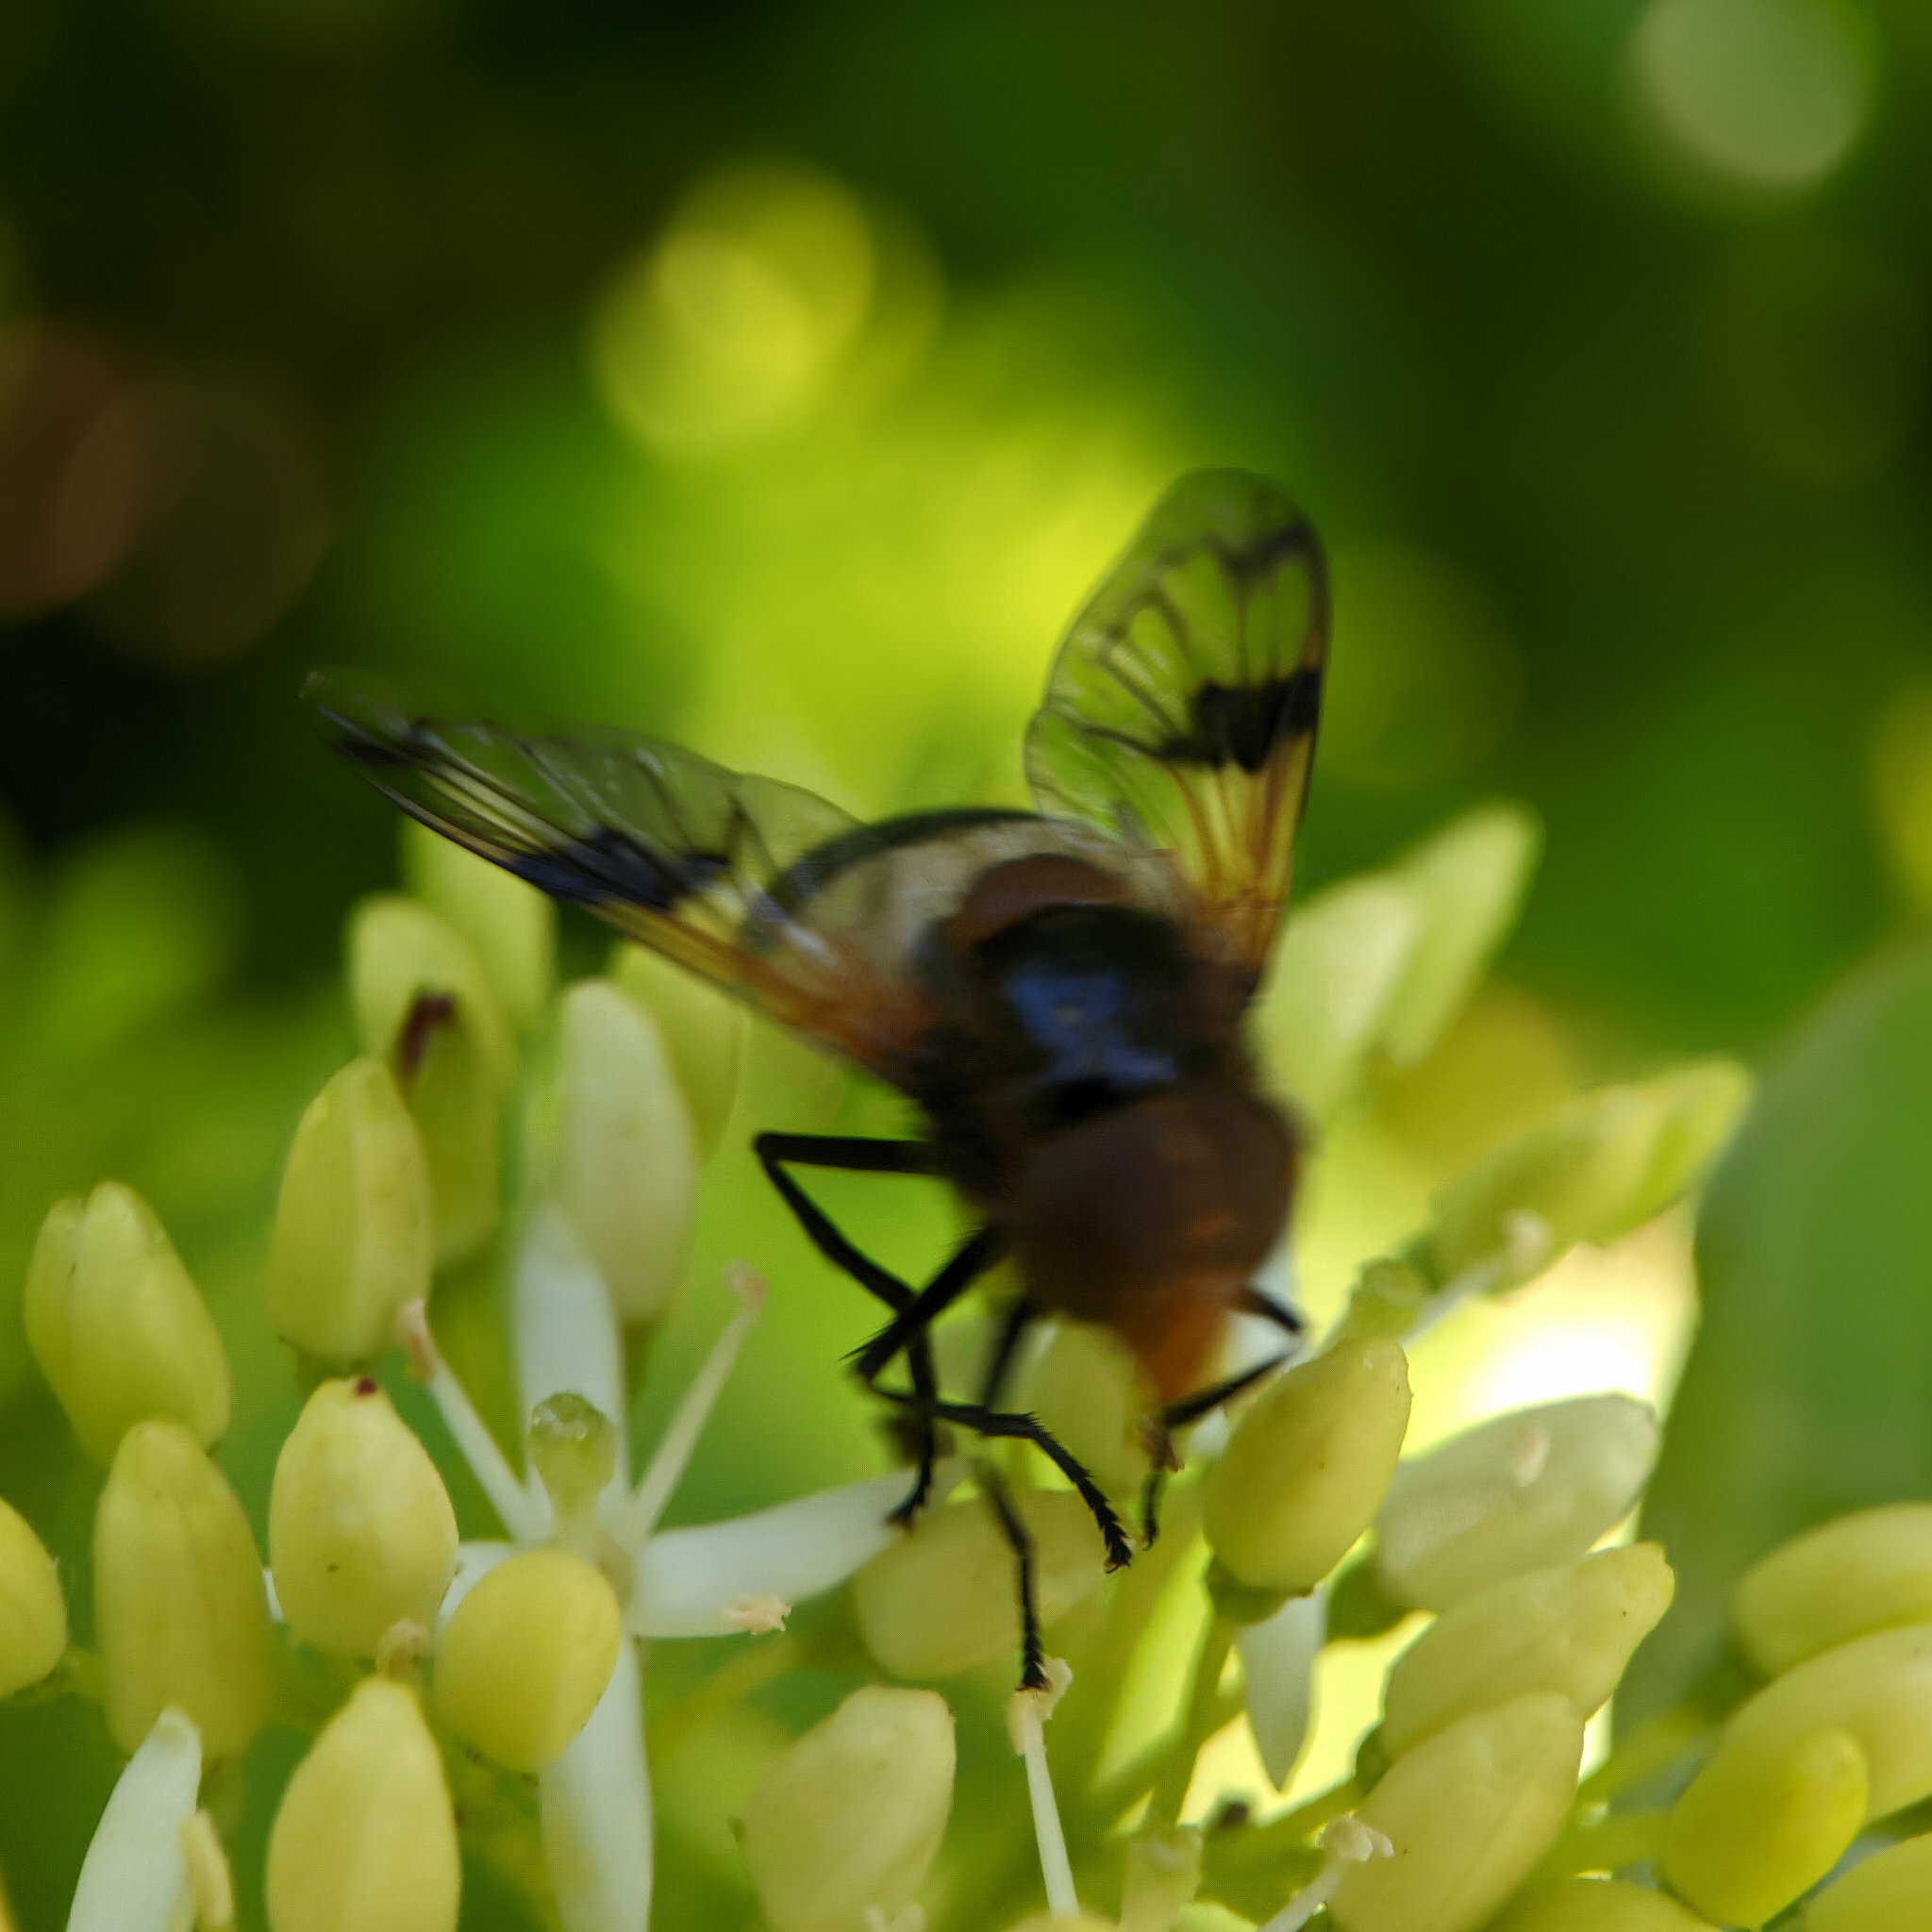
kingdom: Animalia
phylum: Arthropoda
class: Insecta
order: Diptera
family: Syrphidae
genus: Volucella
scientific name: Volucella pellucens
